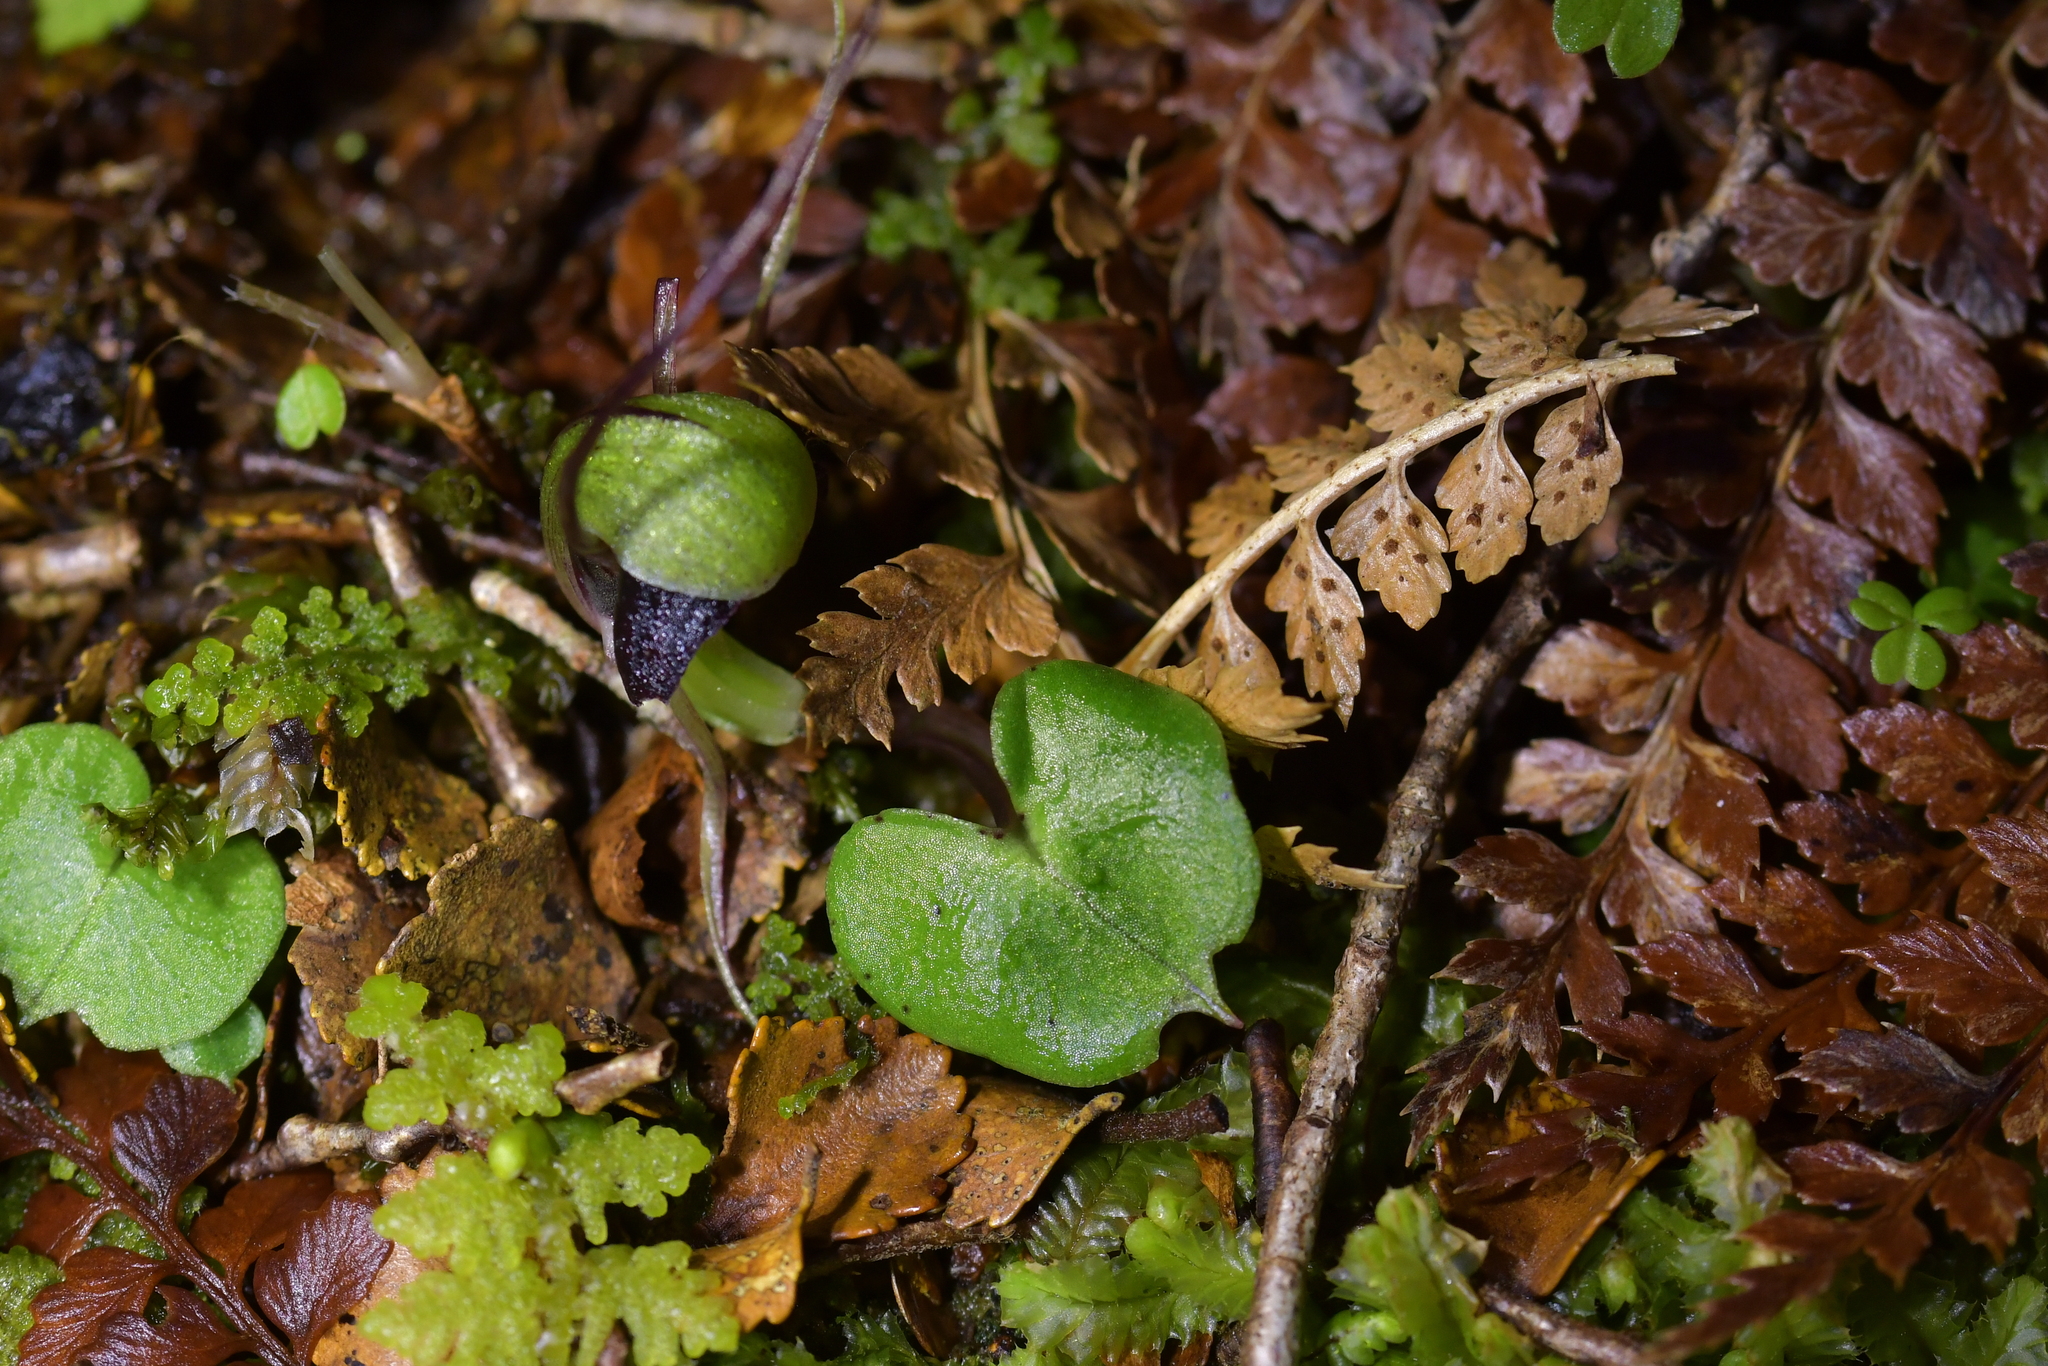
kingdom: Plantae
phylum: Tracheophyta
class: Liliopsida
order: Asparagales
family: Orchidaceae
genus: Corybas
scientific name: Corybas vitreus
